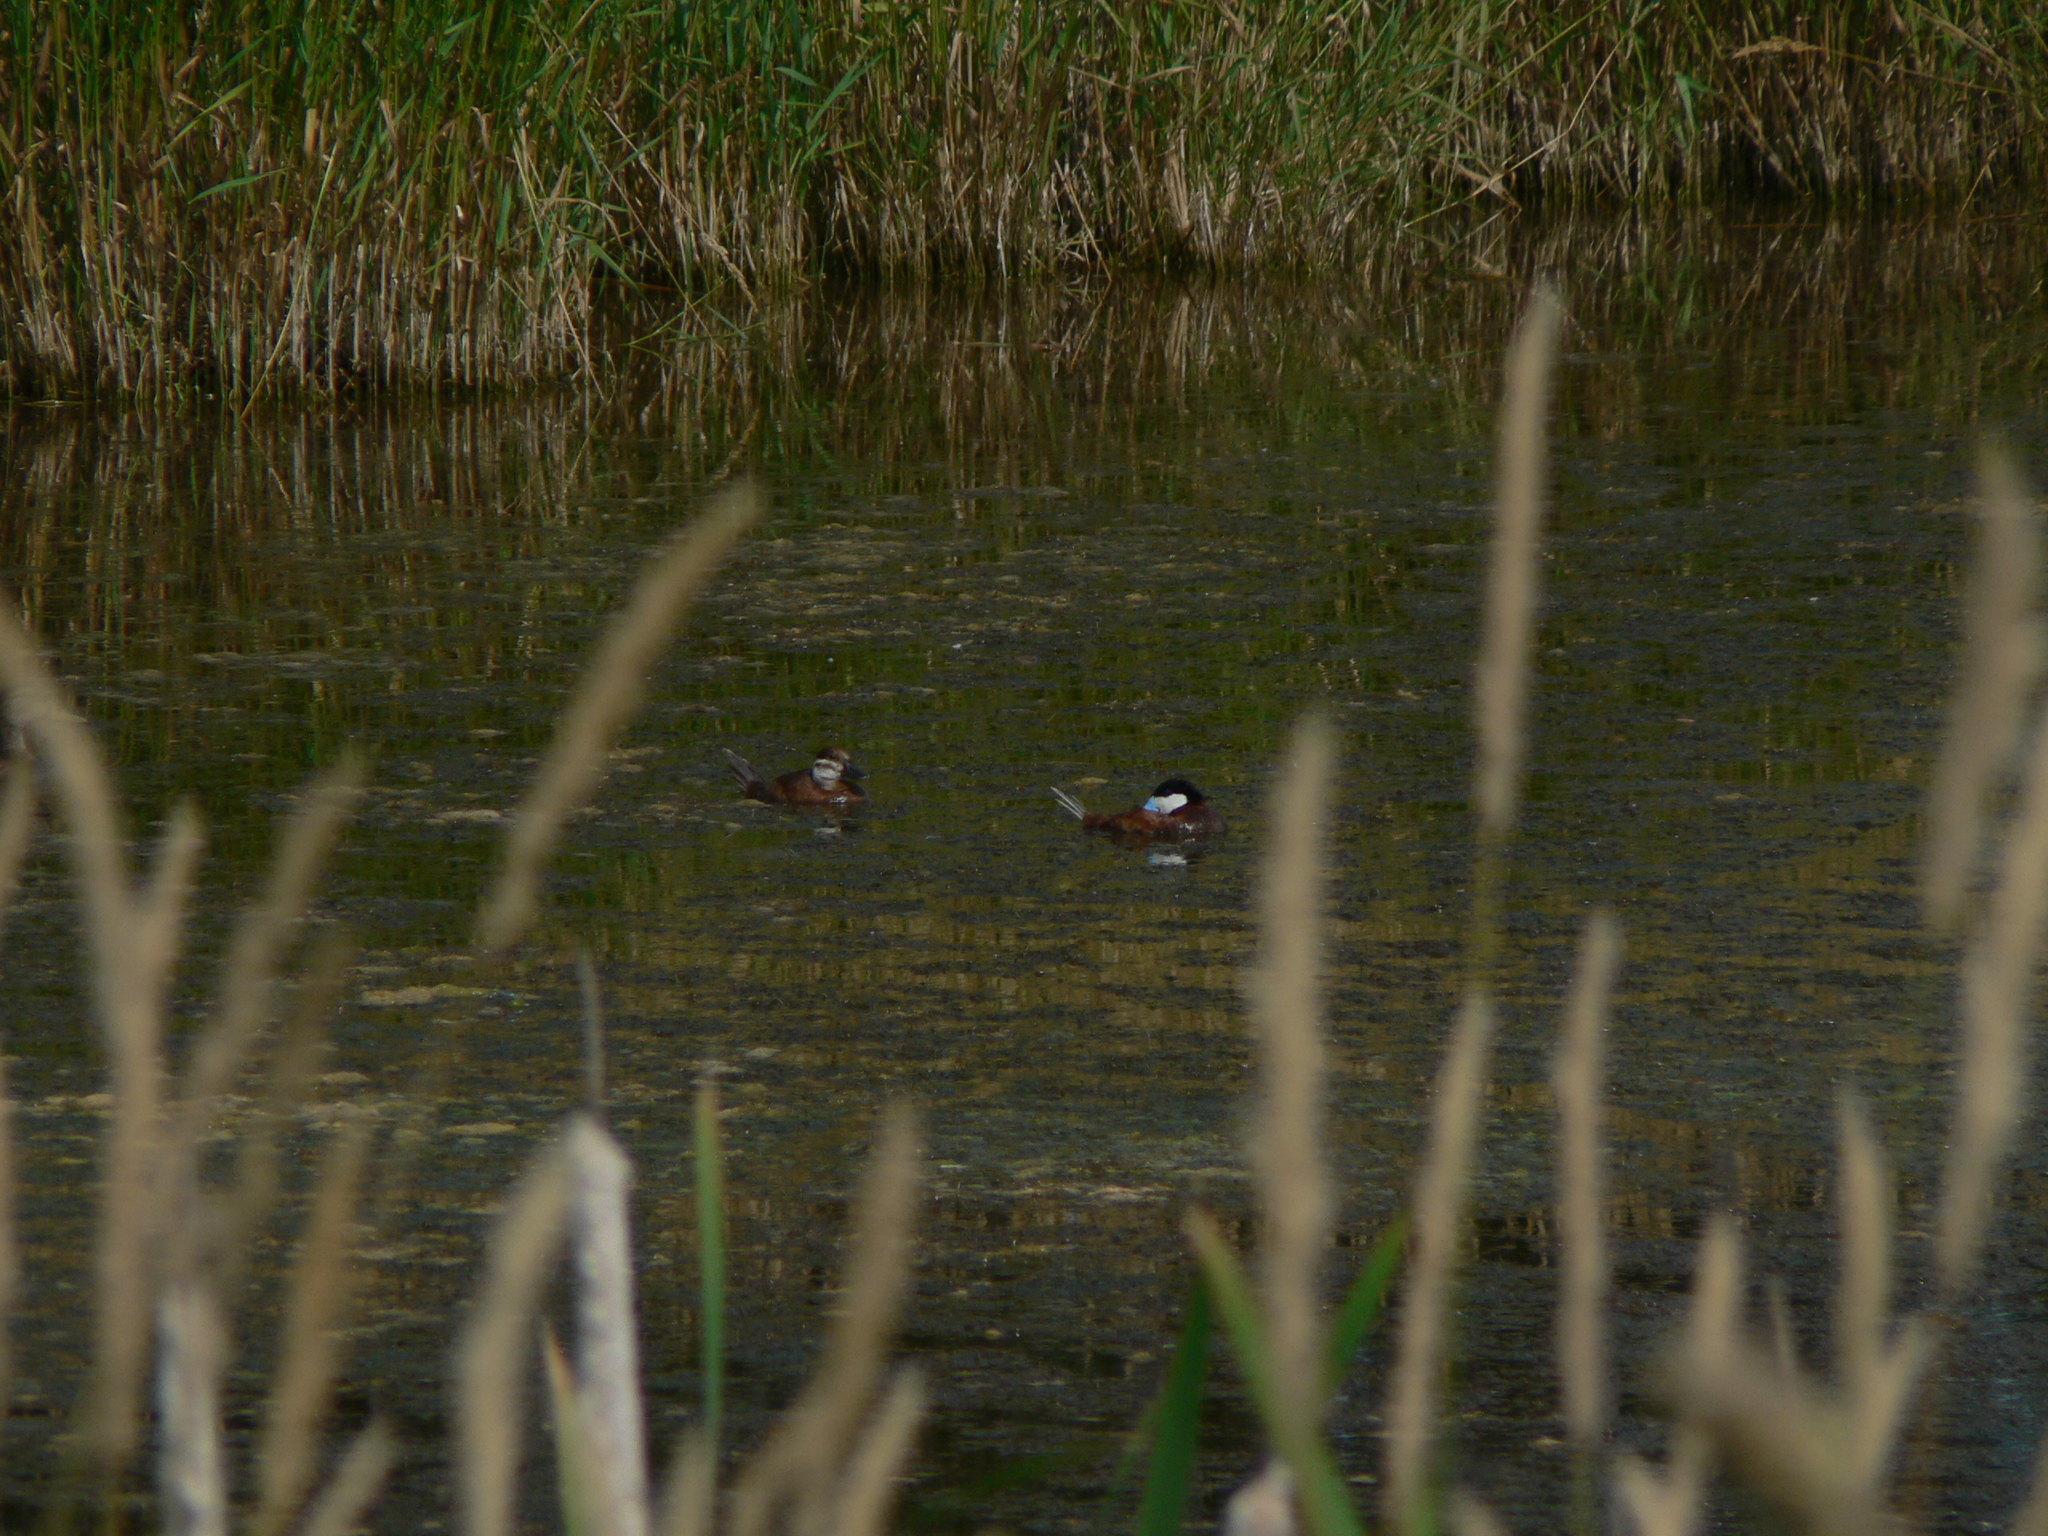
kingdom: Animalia
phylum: Chordata
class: Aves
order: Anseriformes
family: Anatidae
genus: Oxyura
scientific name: Oxyura jamaicensis
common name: Ruddy duck
